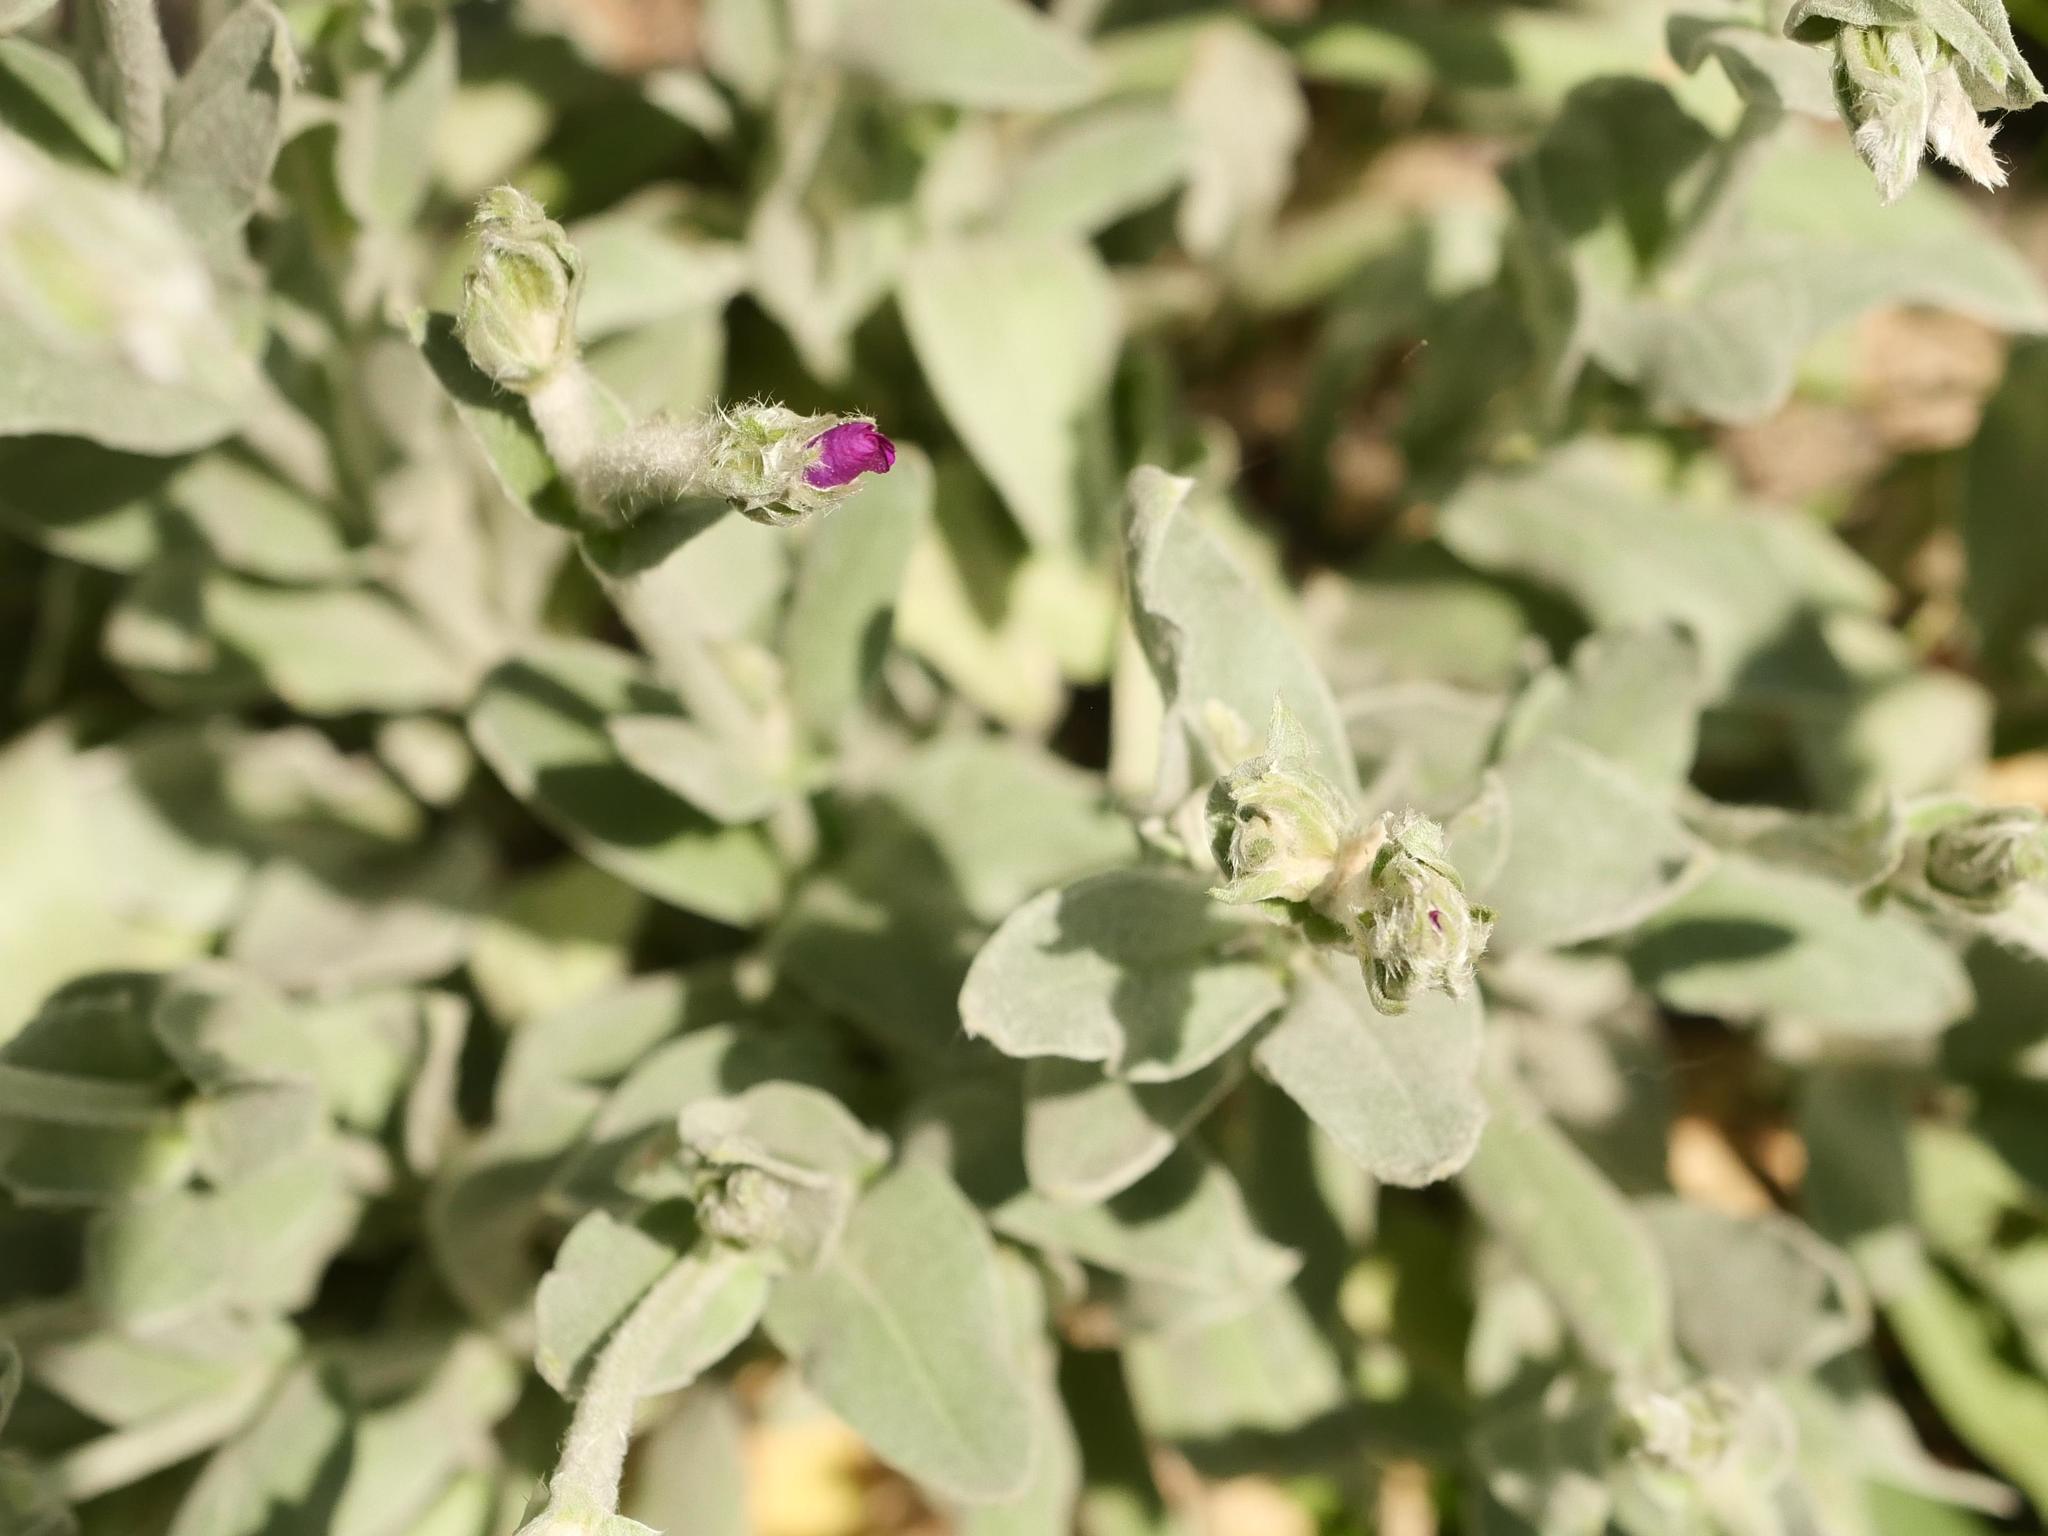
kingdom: Plantae
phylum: Tracheophyta
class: Magnoliopsida
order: Caryophyllales
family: Caryophyllaceae
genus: Silene
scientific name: Silene coronaria
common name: Rose campion
